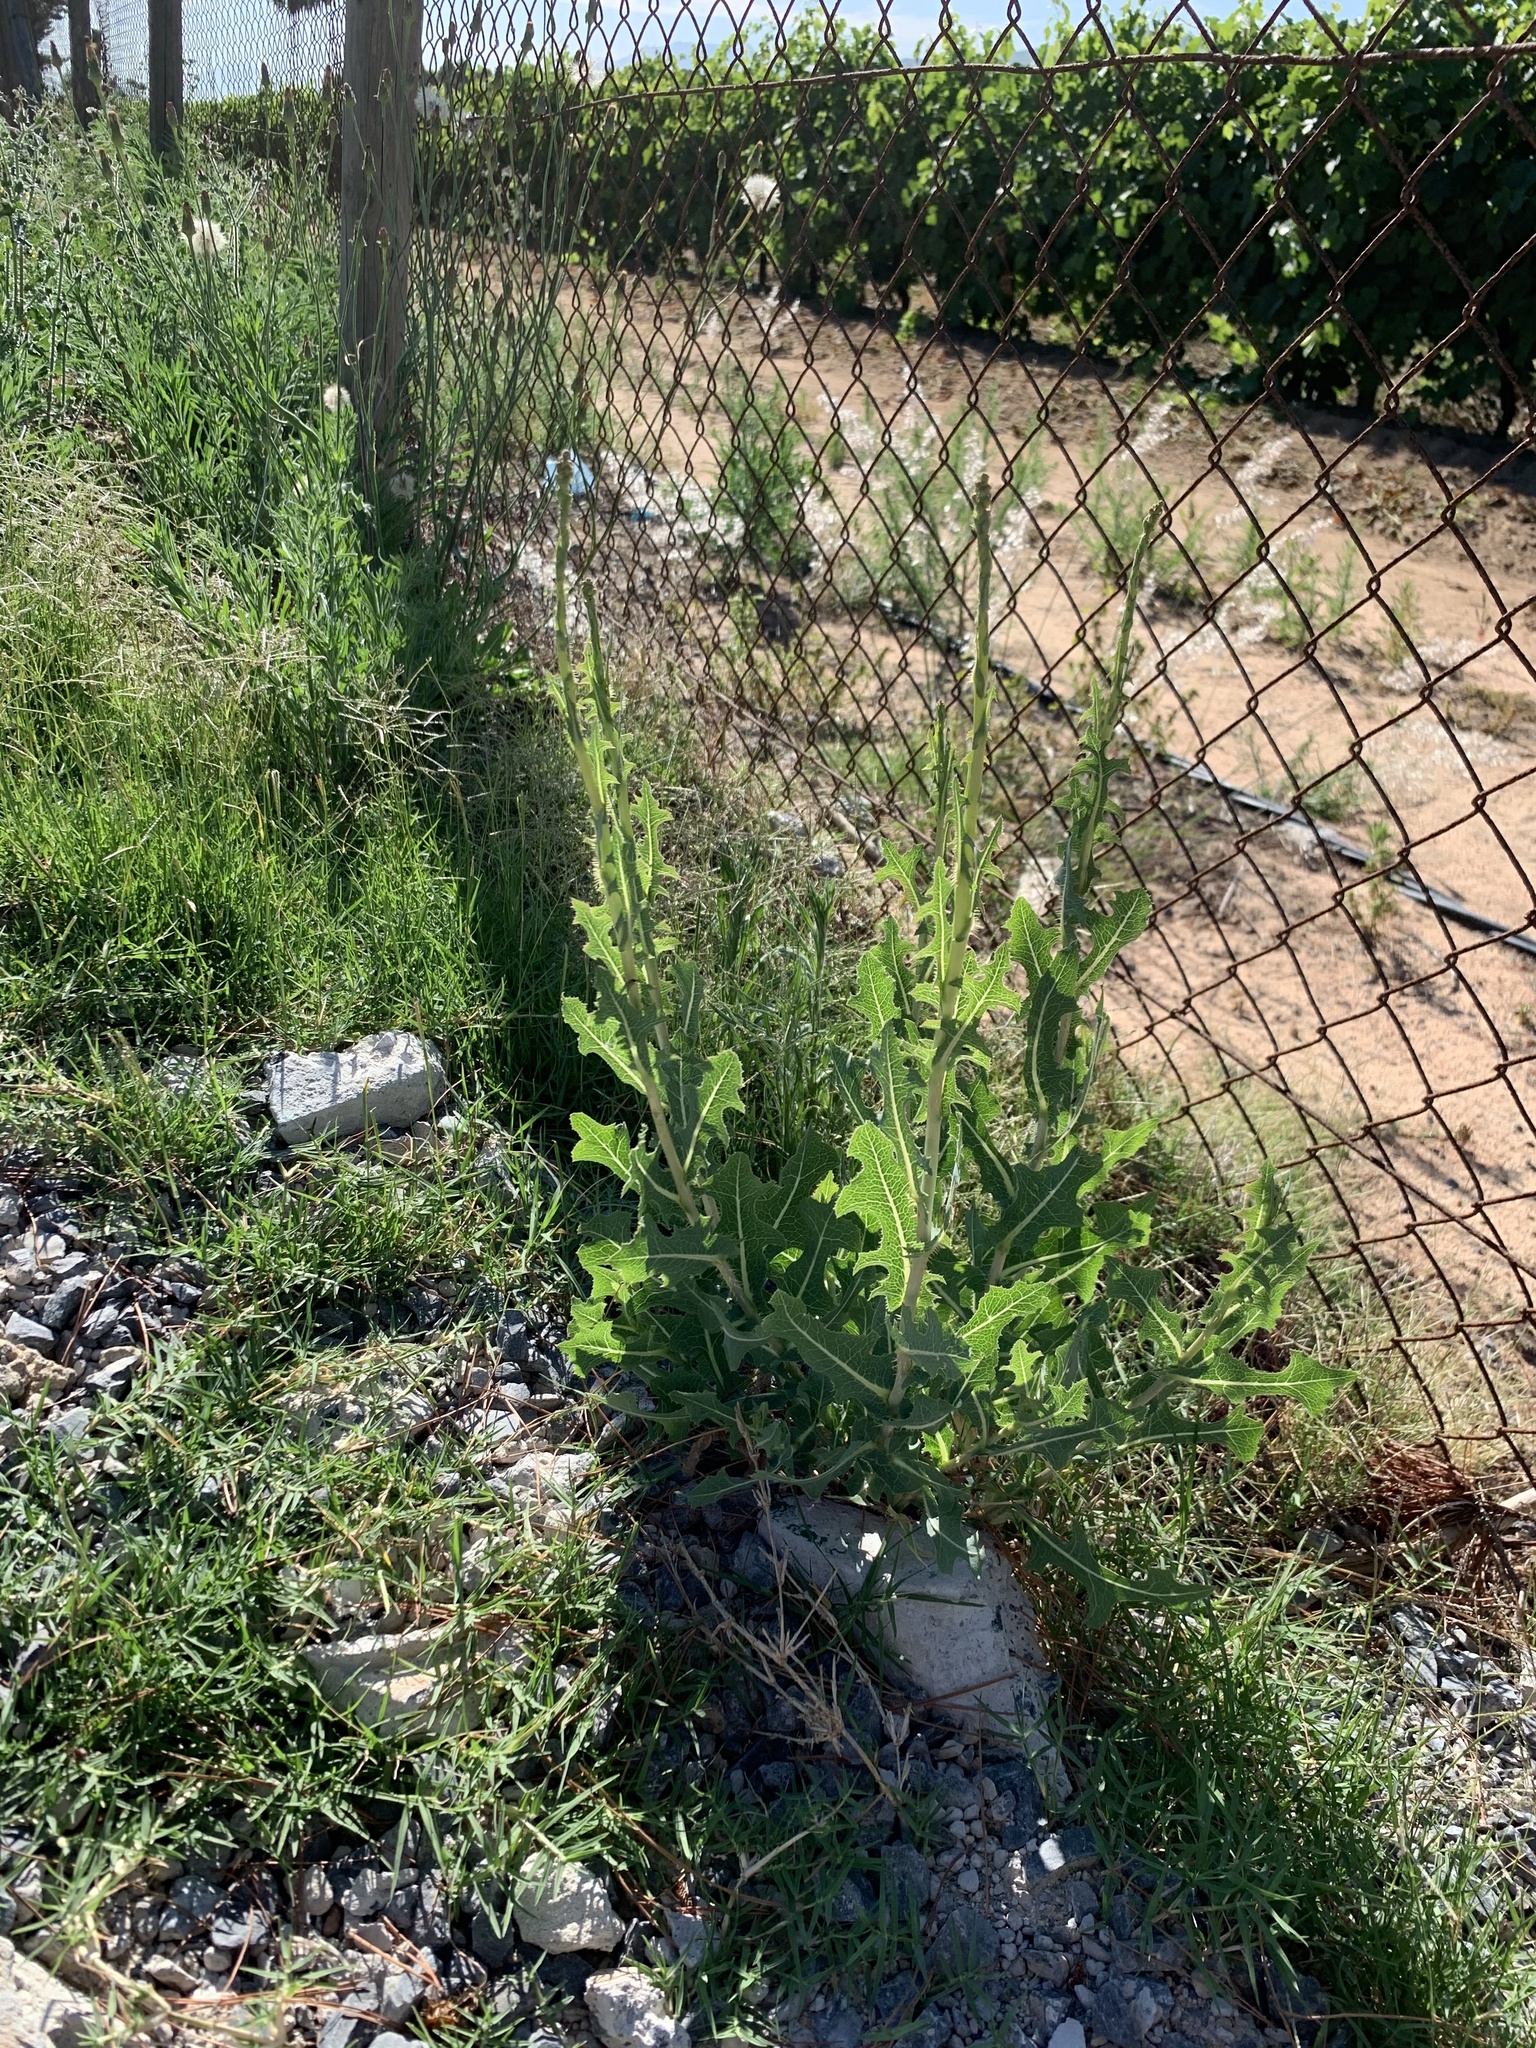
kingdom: Plantae
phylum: Tracheophyta
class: Magnoliopsida
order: Asterales
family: Asteraceae
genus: Lactuca
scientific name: Lactuca serriola
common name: Prickly lettuce
